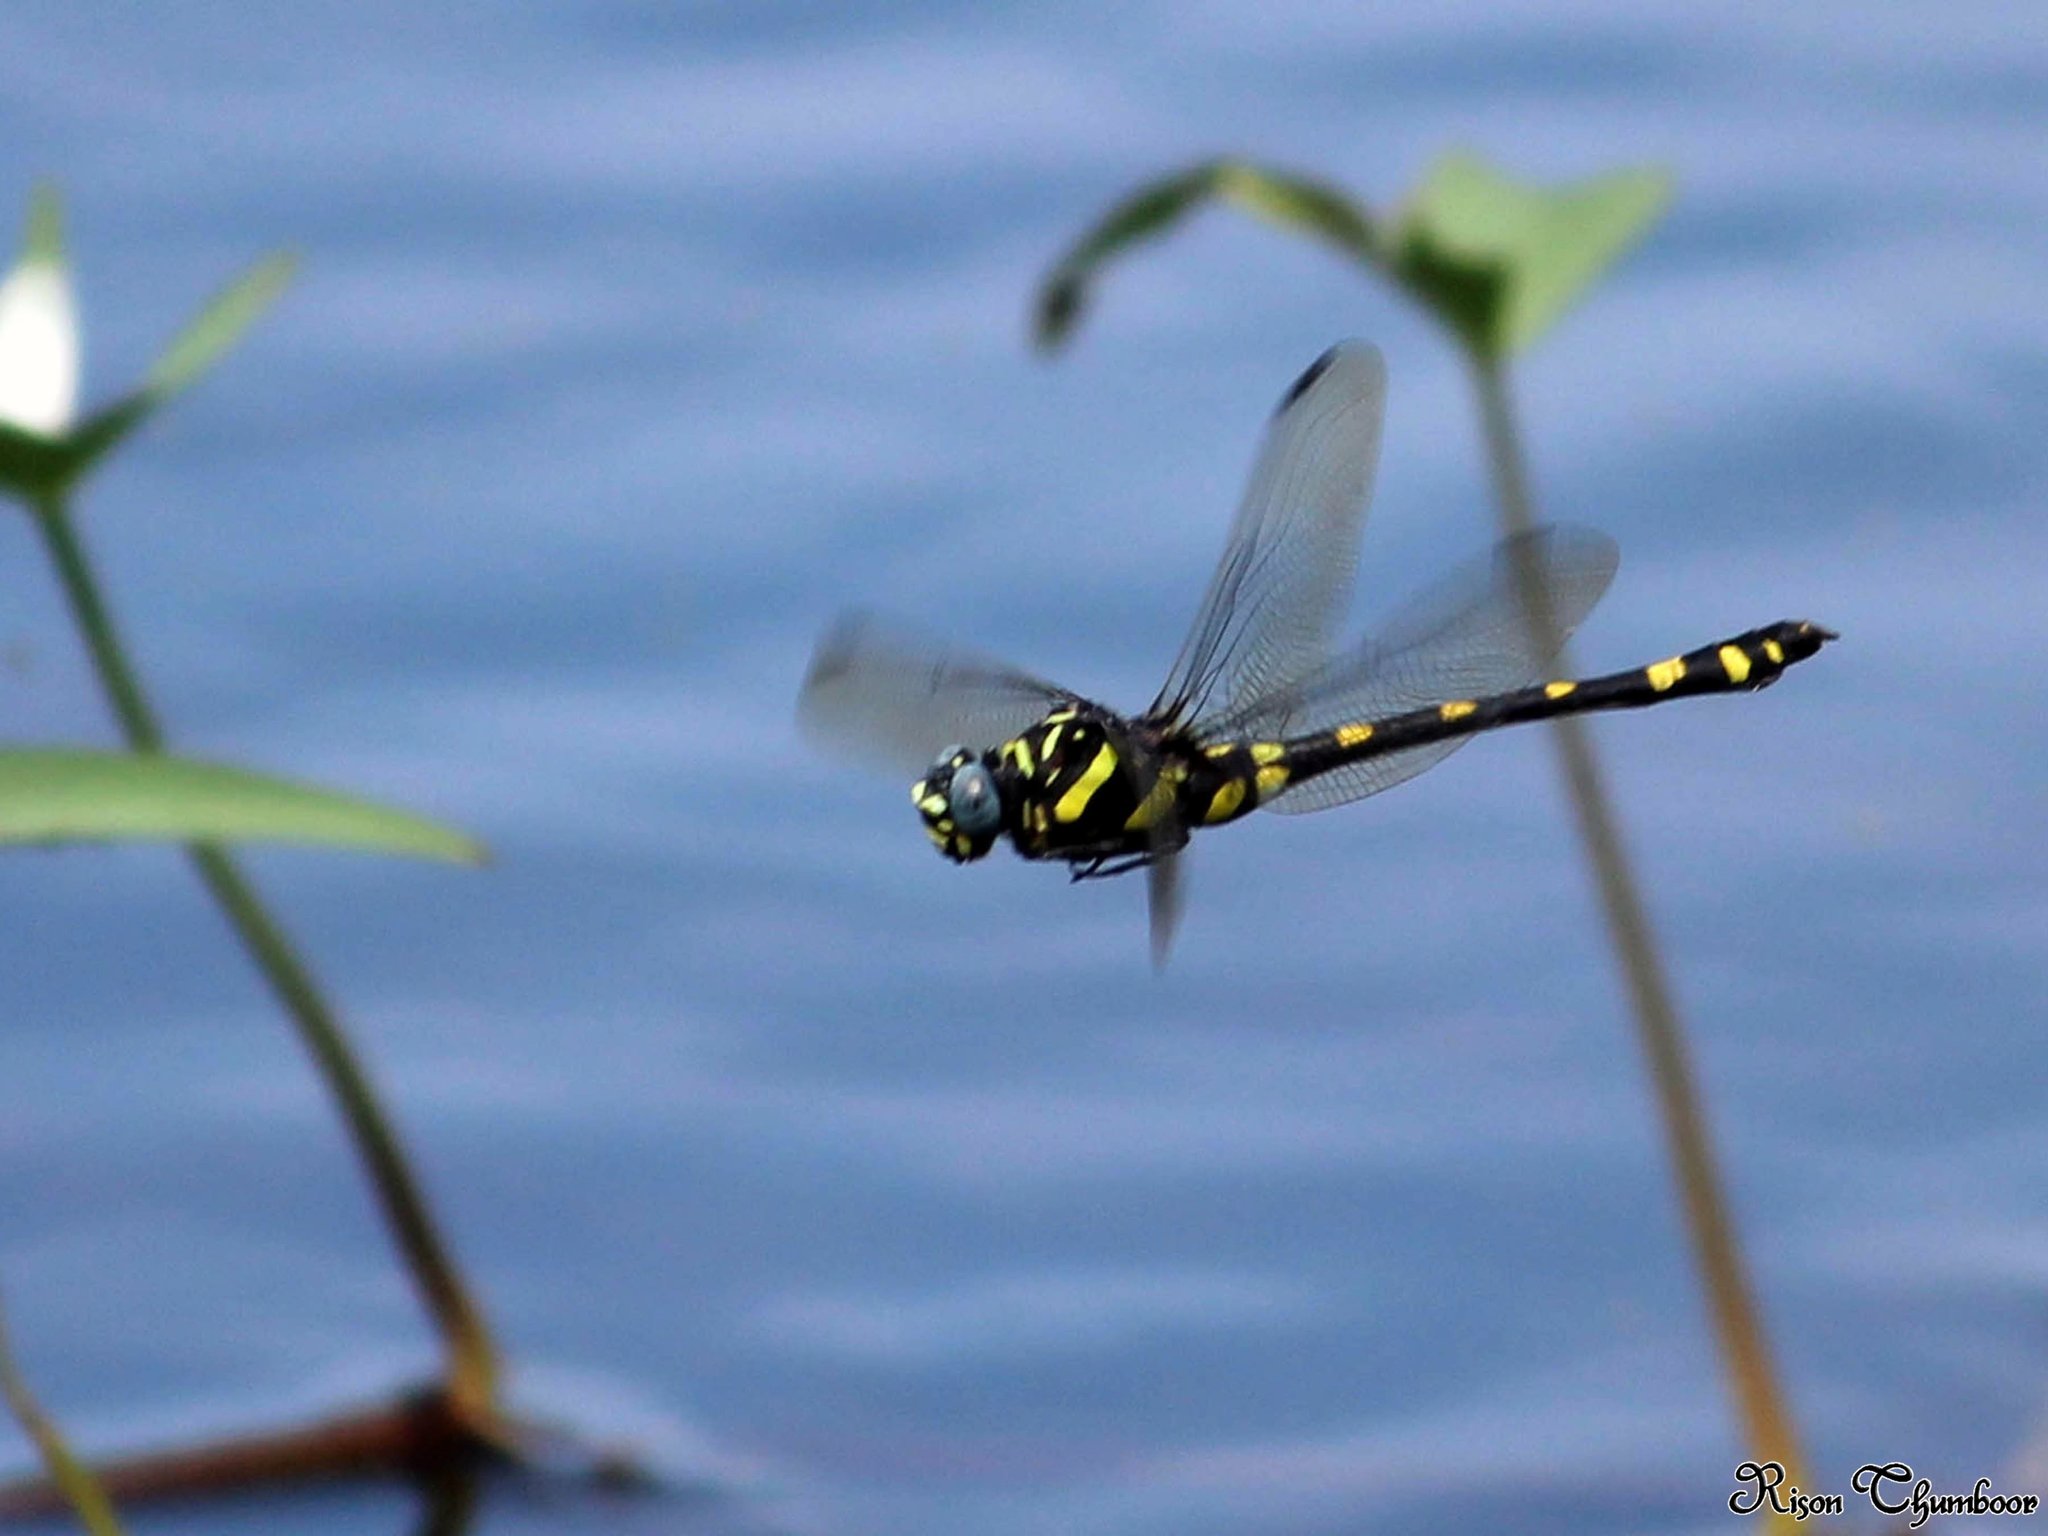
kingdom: Animalia
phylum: Arthropoda
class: Insecta
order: Odonata
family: Gomphidae
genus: Ictinogomphus
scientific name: Ictinogomphus rapax
